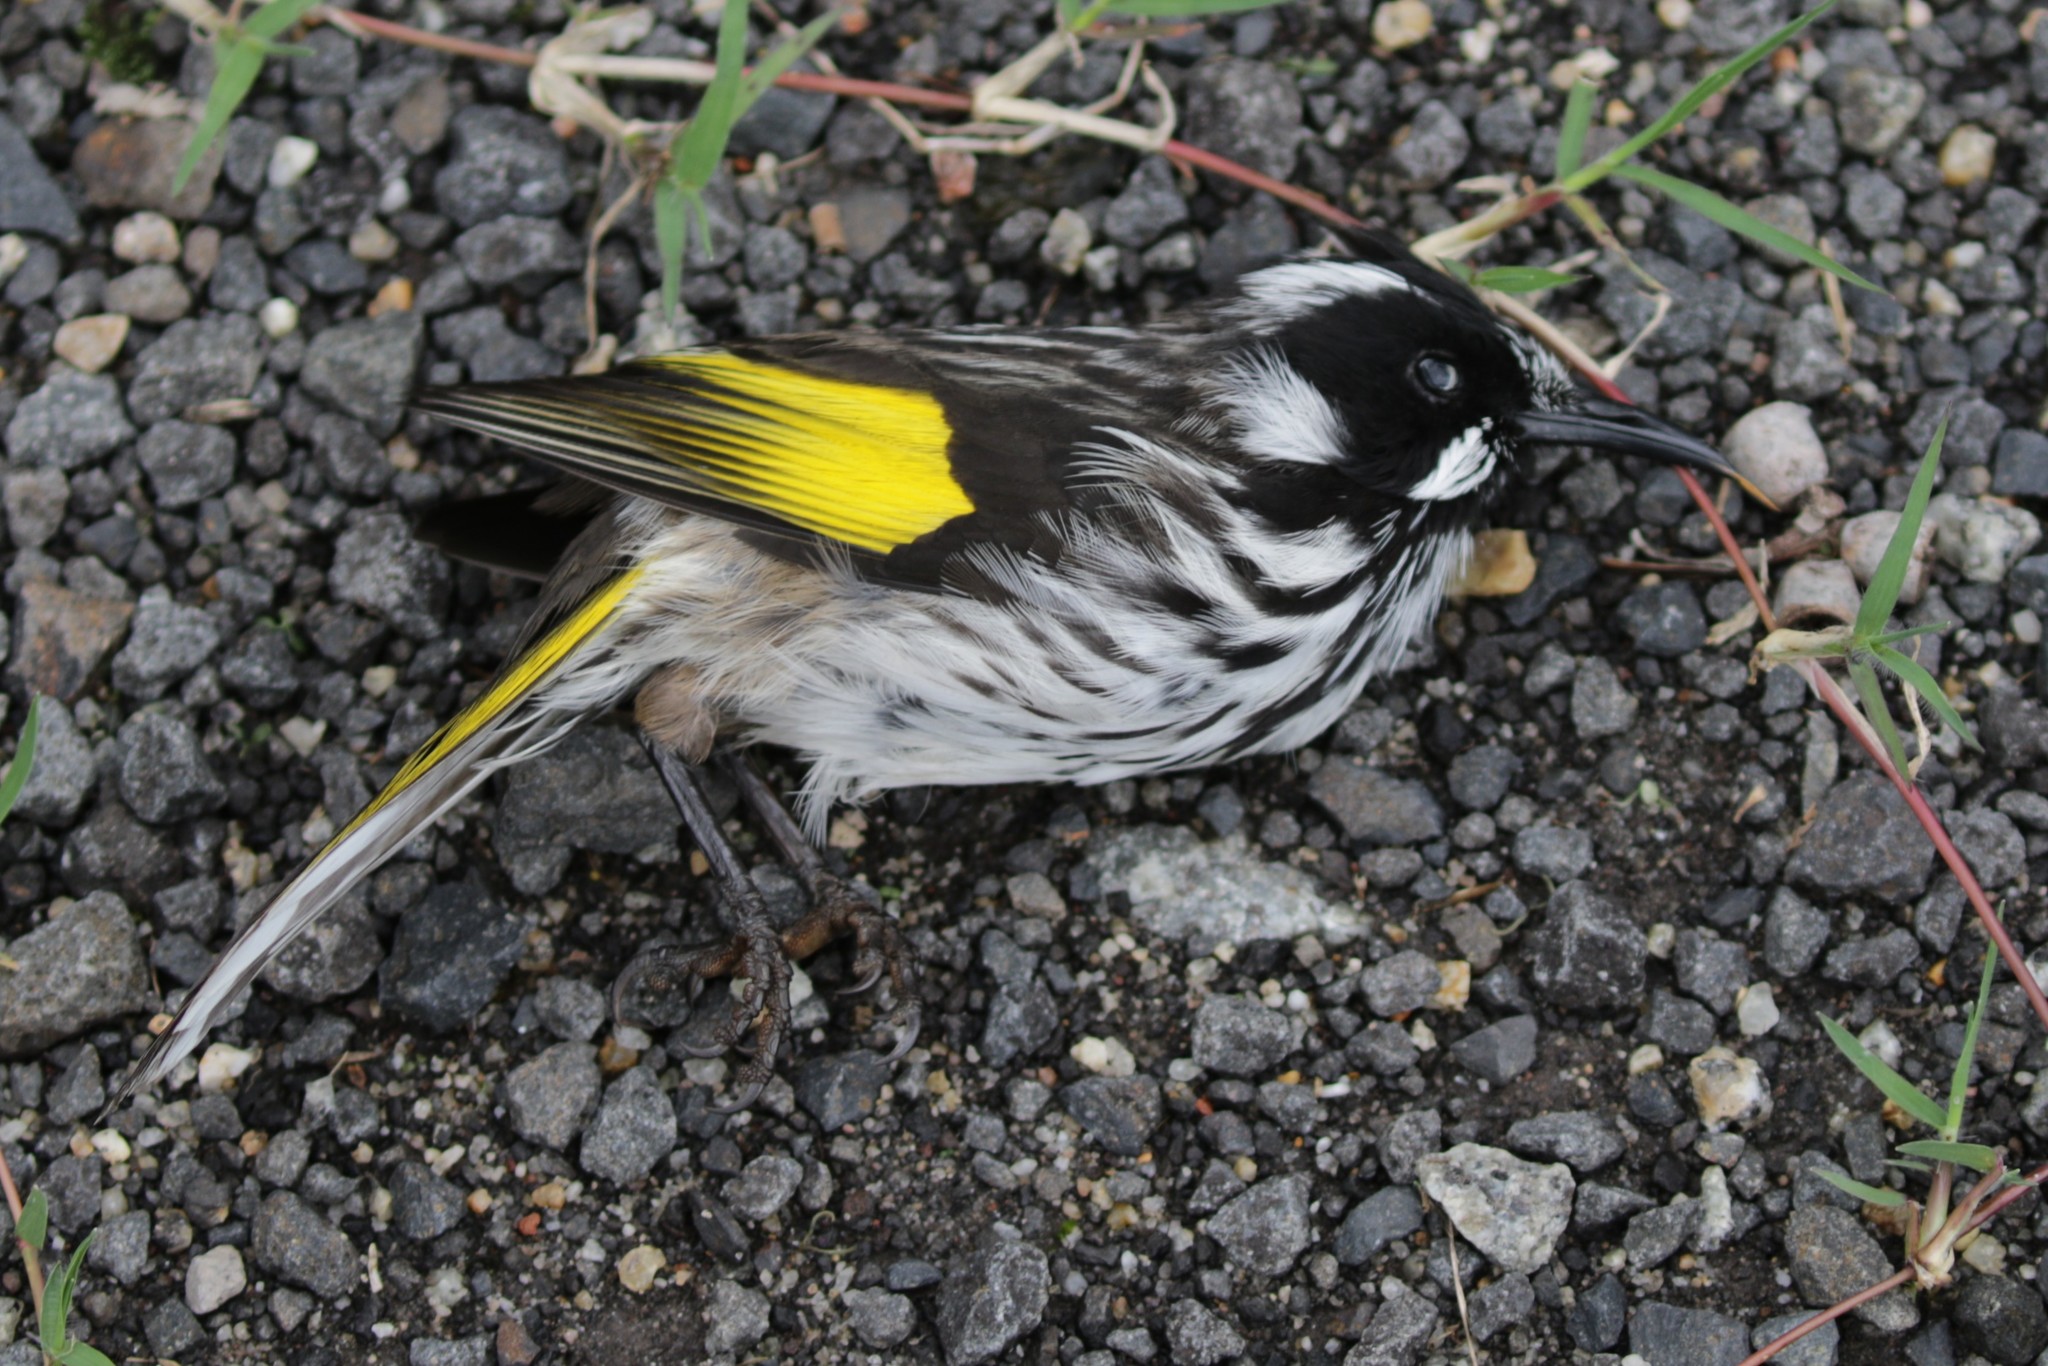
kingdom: Animalia
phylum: Chordata
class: Aves
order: Passeriformes
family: Meliphagidae
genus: Phylidonyris
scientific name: Phylidonyris novaehollandiae
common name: New holland honeyeater
